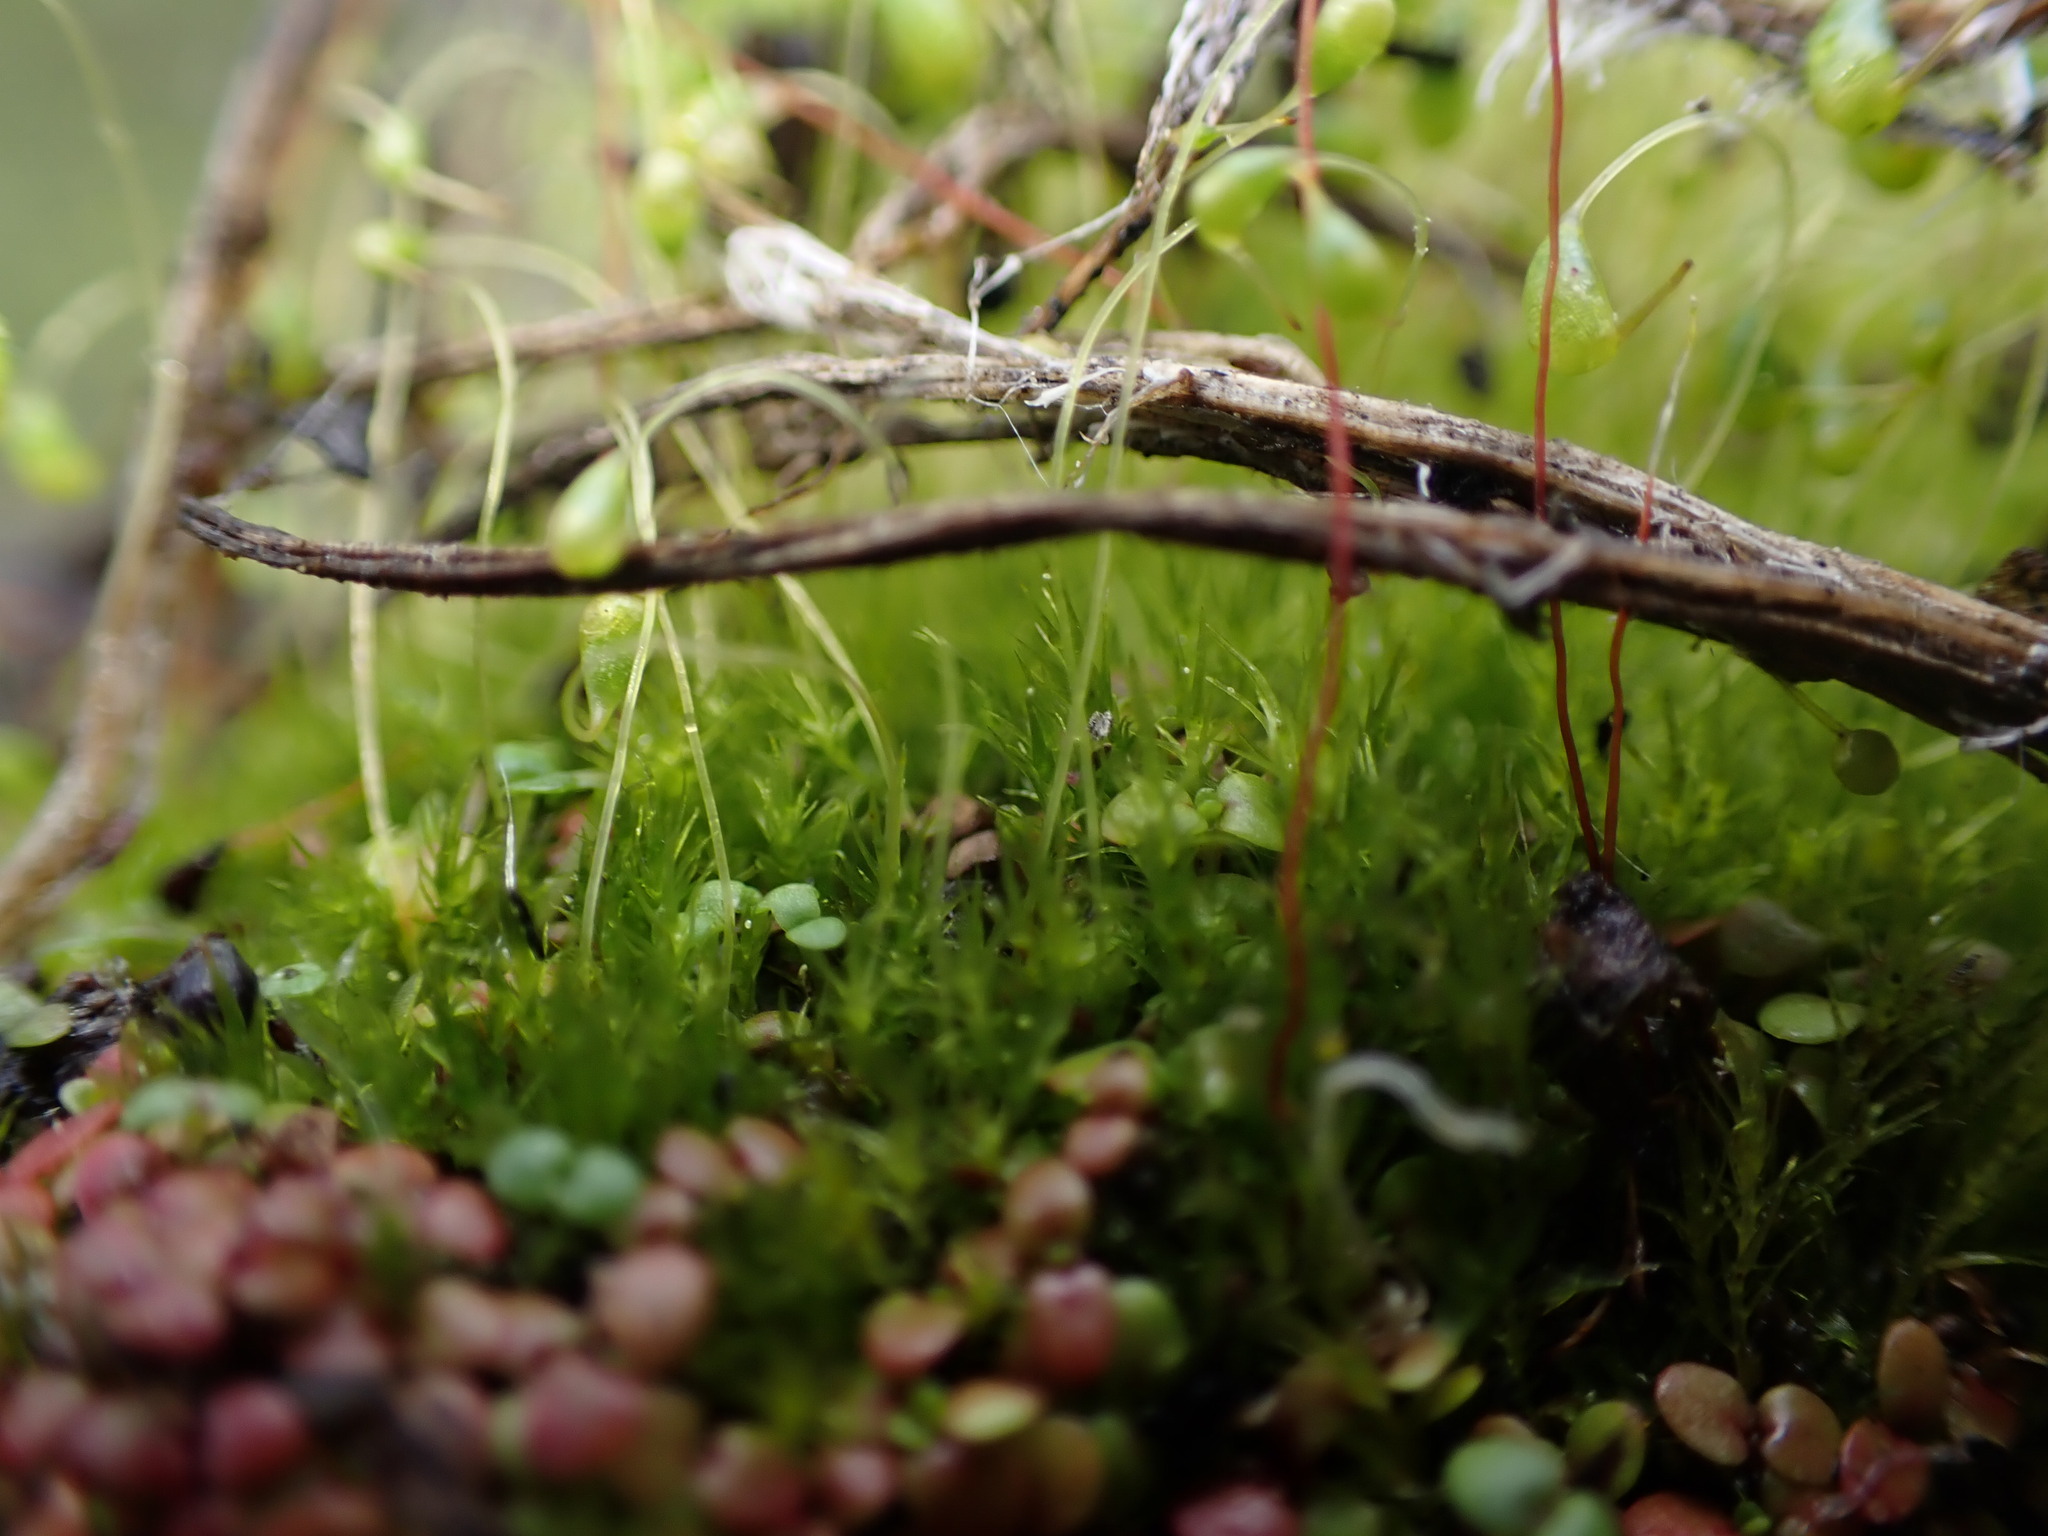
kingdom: Plantae
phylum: Bryophyta
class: Bryopsida
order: Funariales
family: Funariaceae
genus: Funaria
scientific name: Funaria hygrometrica
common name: Common cord moss
